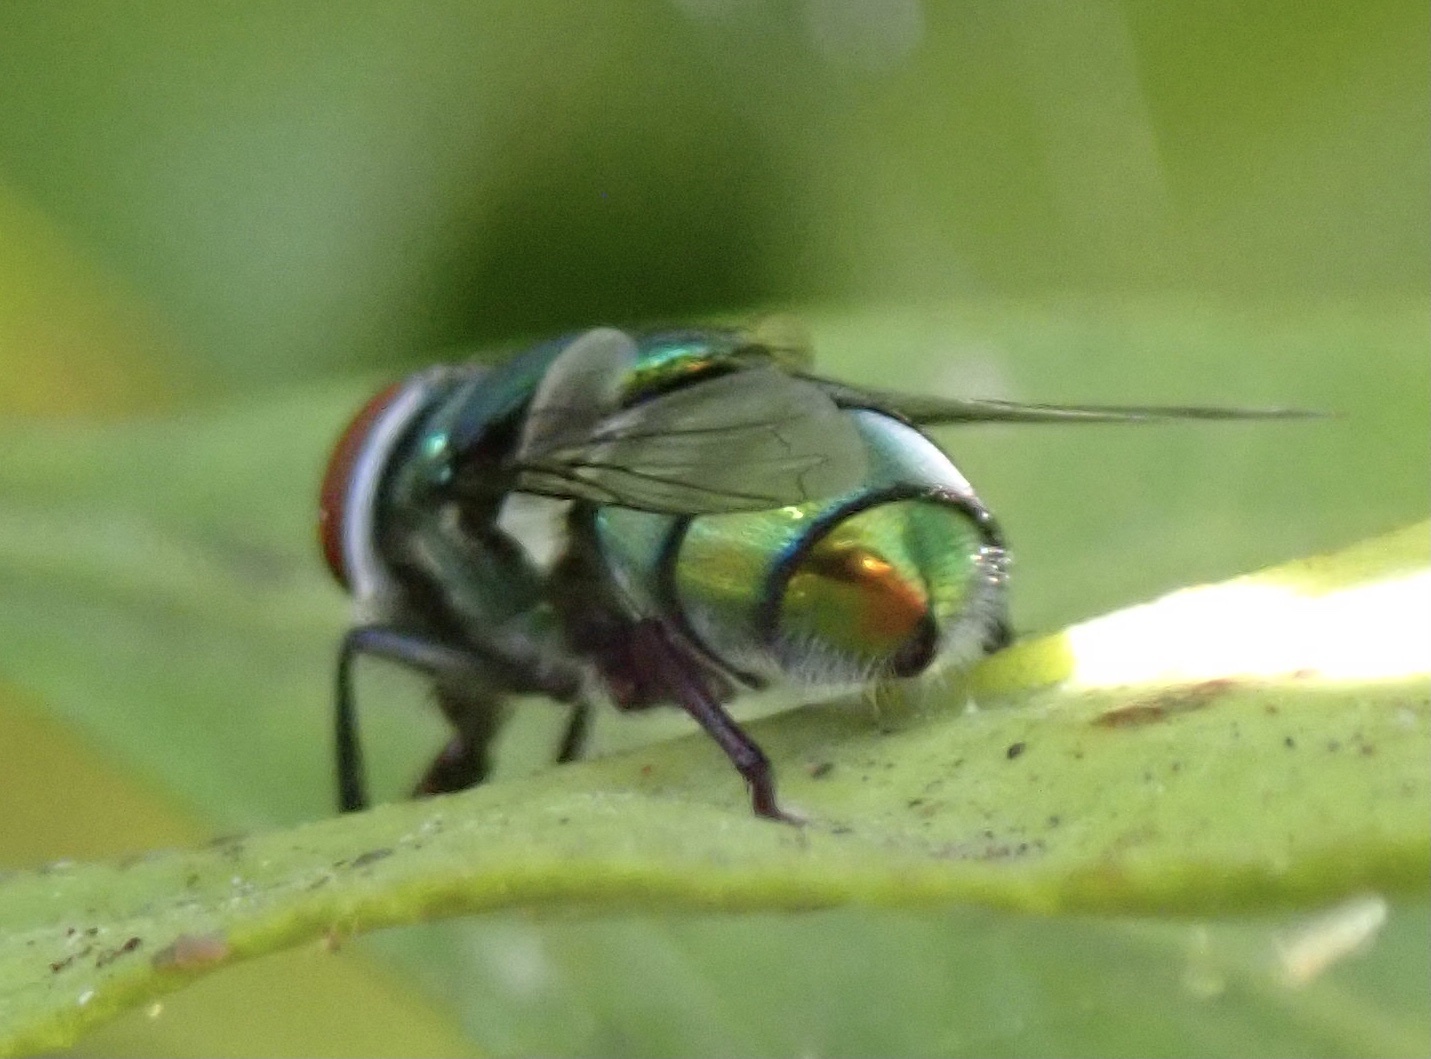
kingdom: Animalia
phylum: Arthropoda
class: Insecta
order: Diptera
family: Calliphoridae
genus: Chrysomya
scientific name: Chrysomya albiceps
